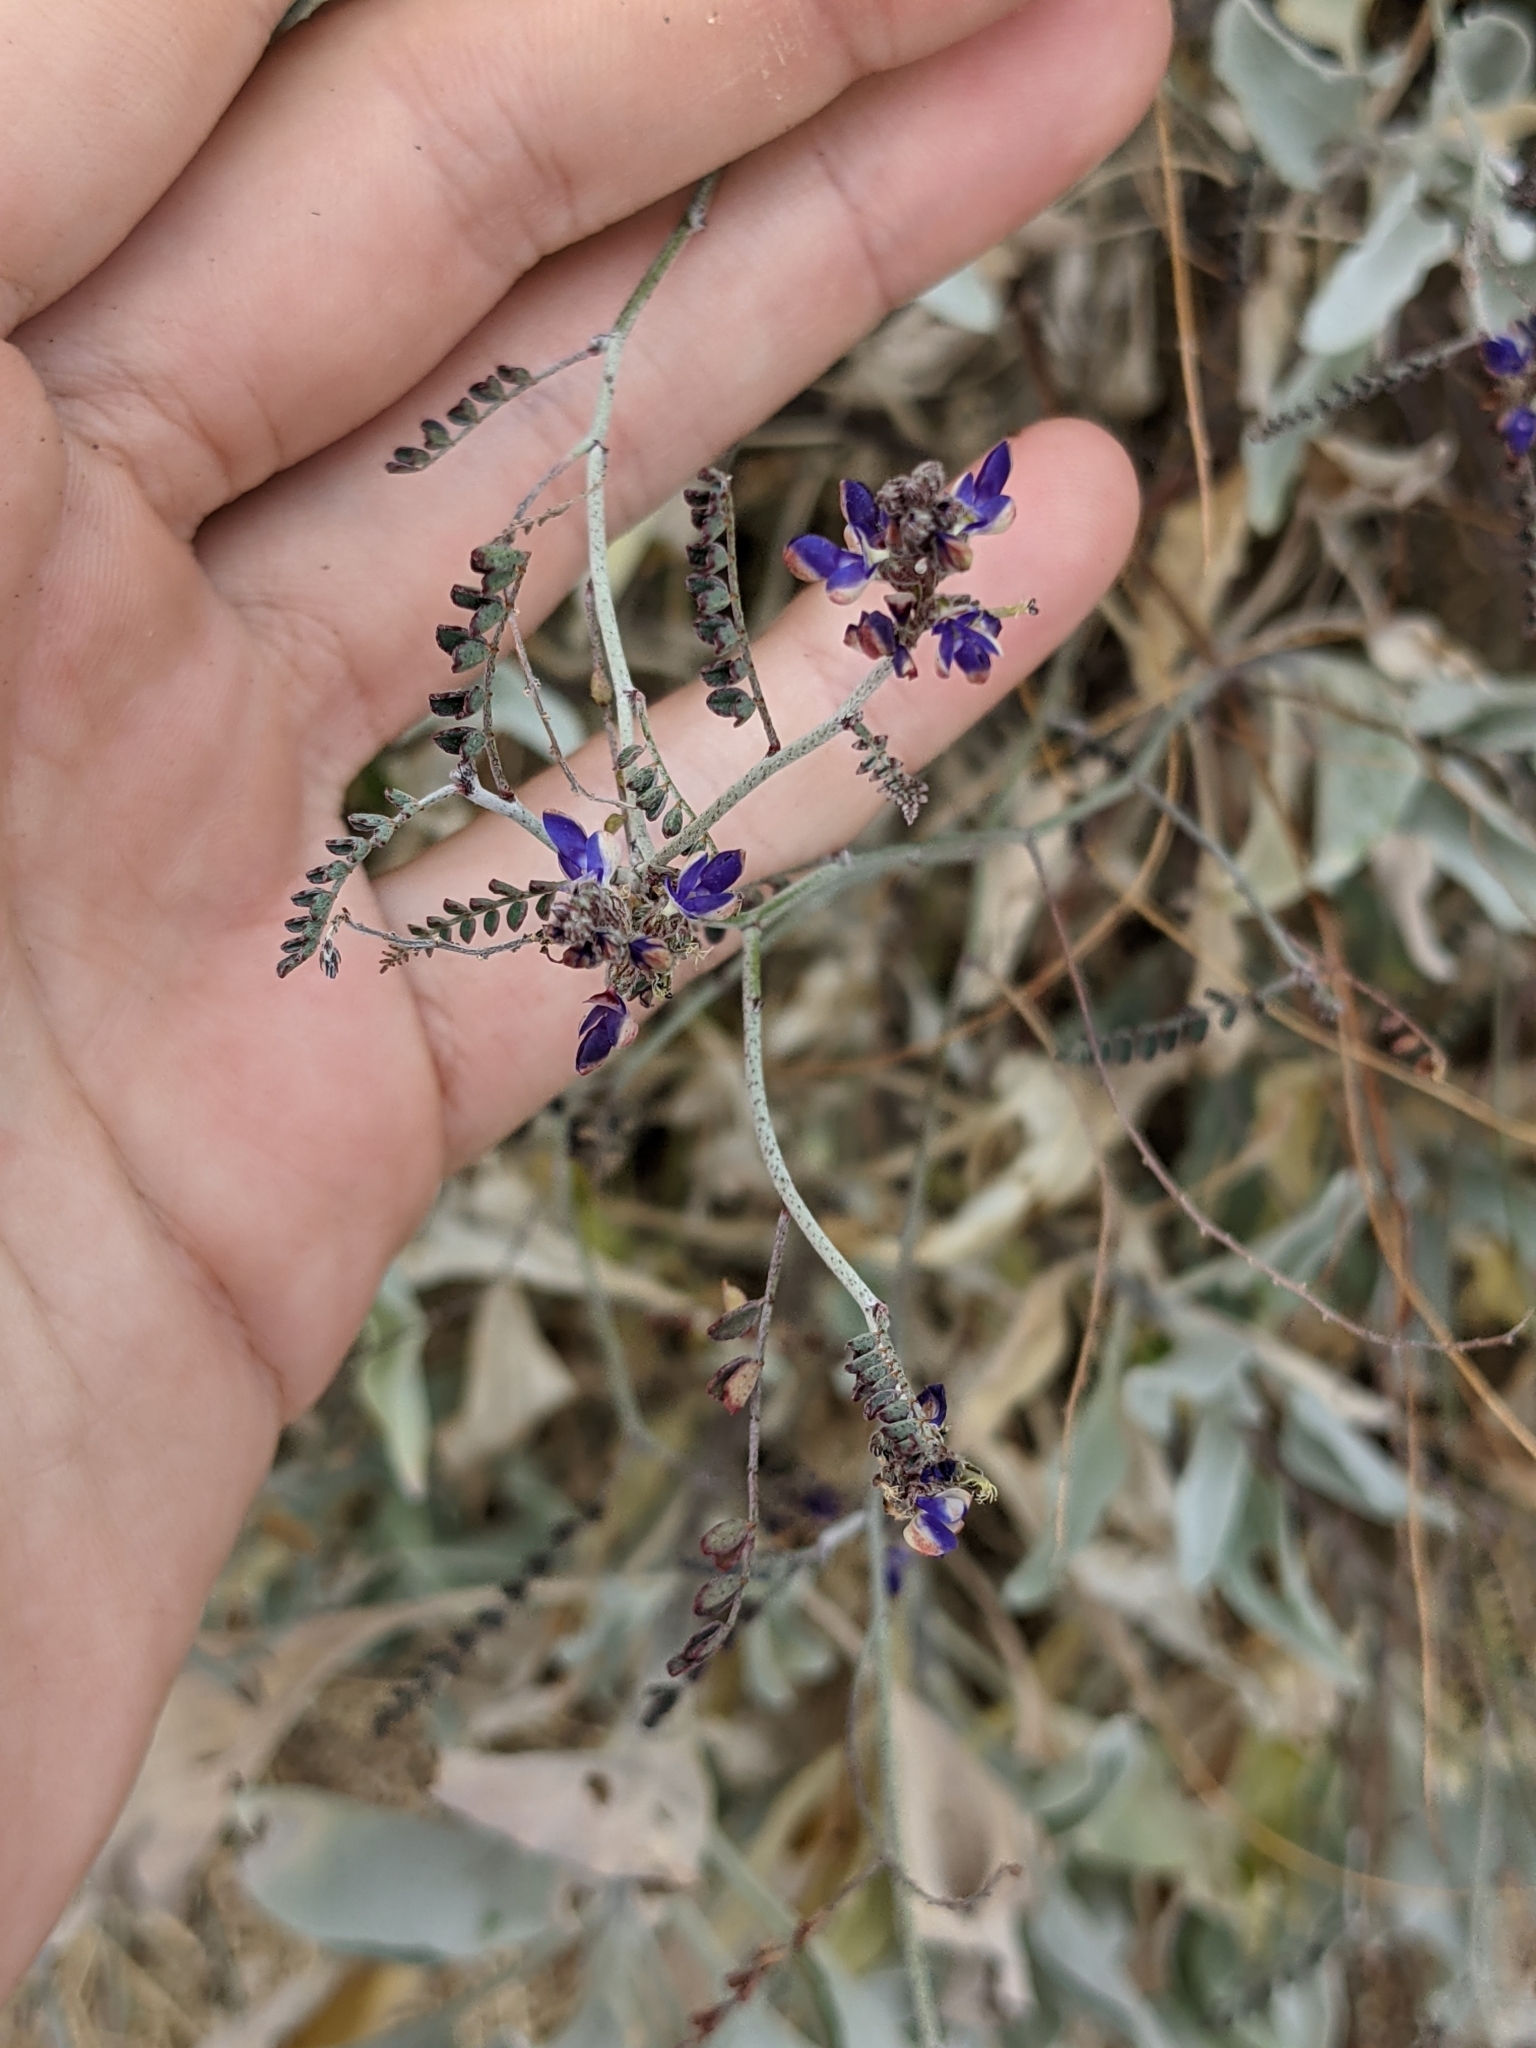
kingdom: Plantae
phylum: Tracheophyta
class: Magnoliopsida
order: Fabales
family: Fabaceae
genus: Marina
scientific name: Marina parryi
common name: Parry's marina
